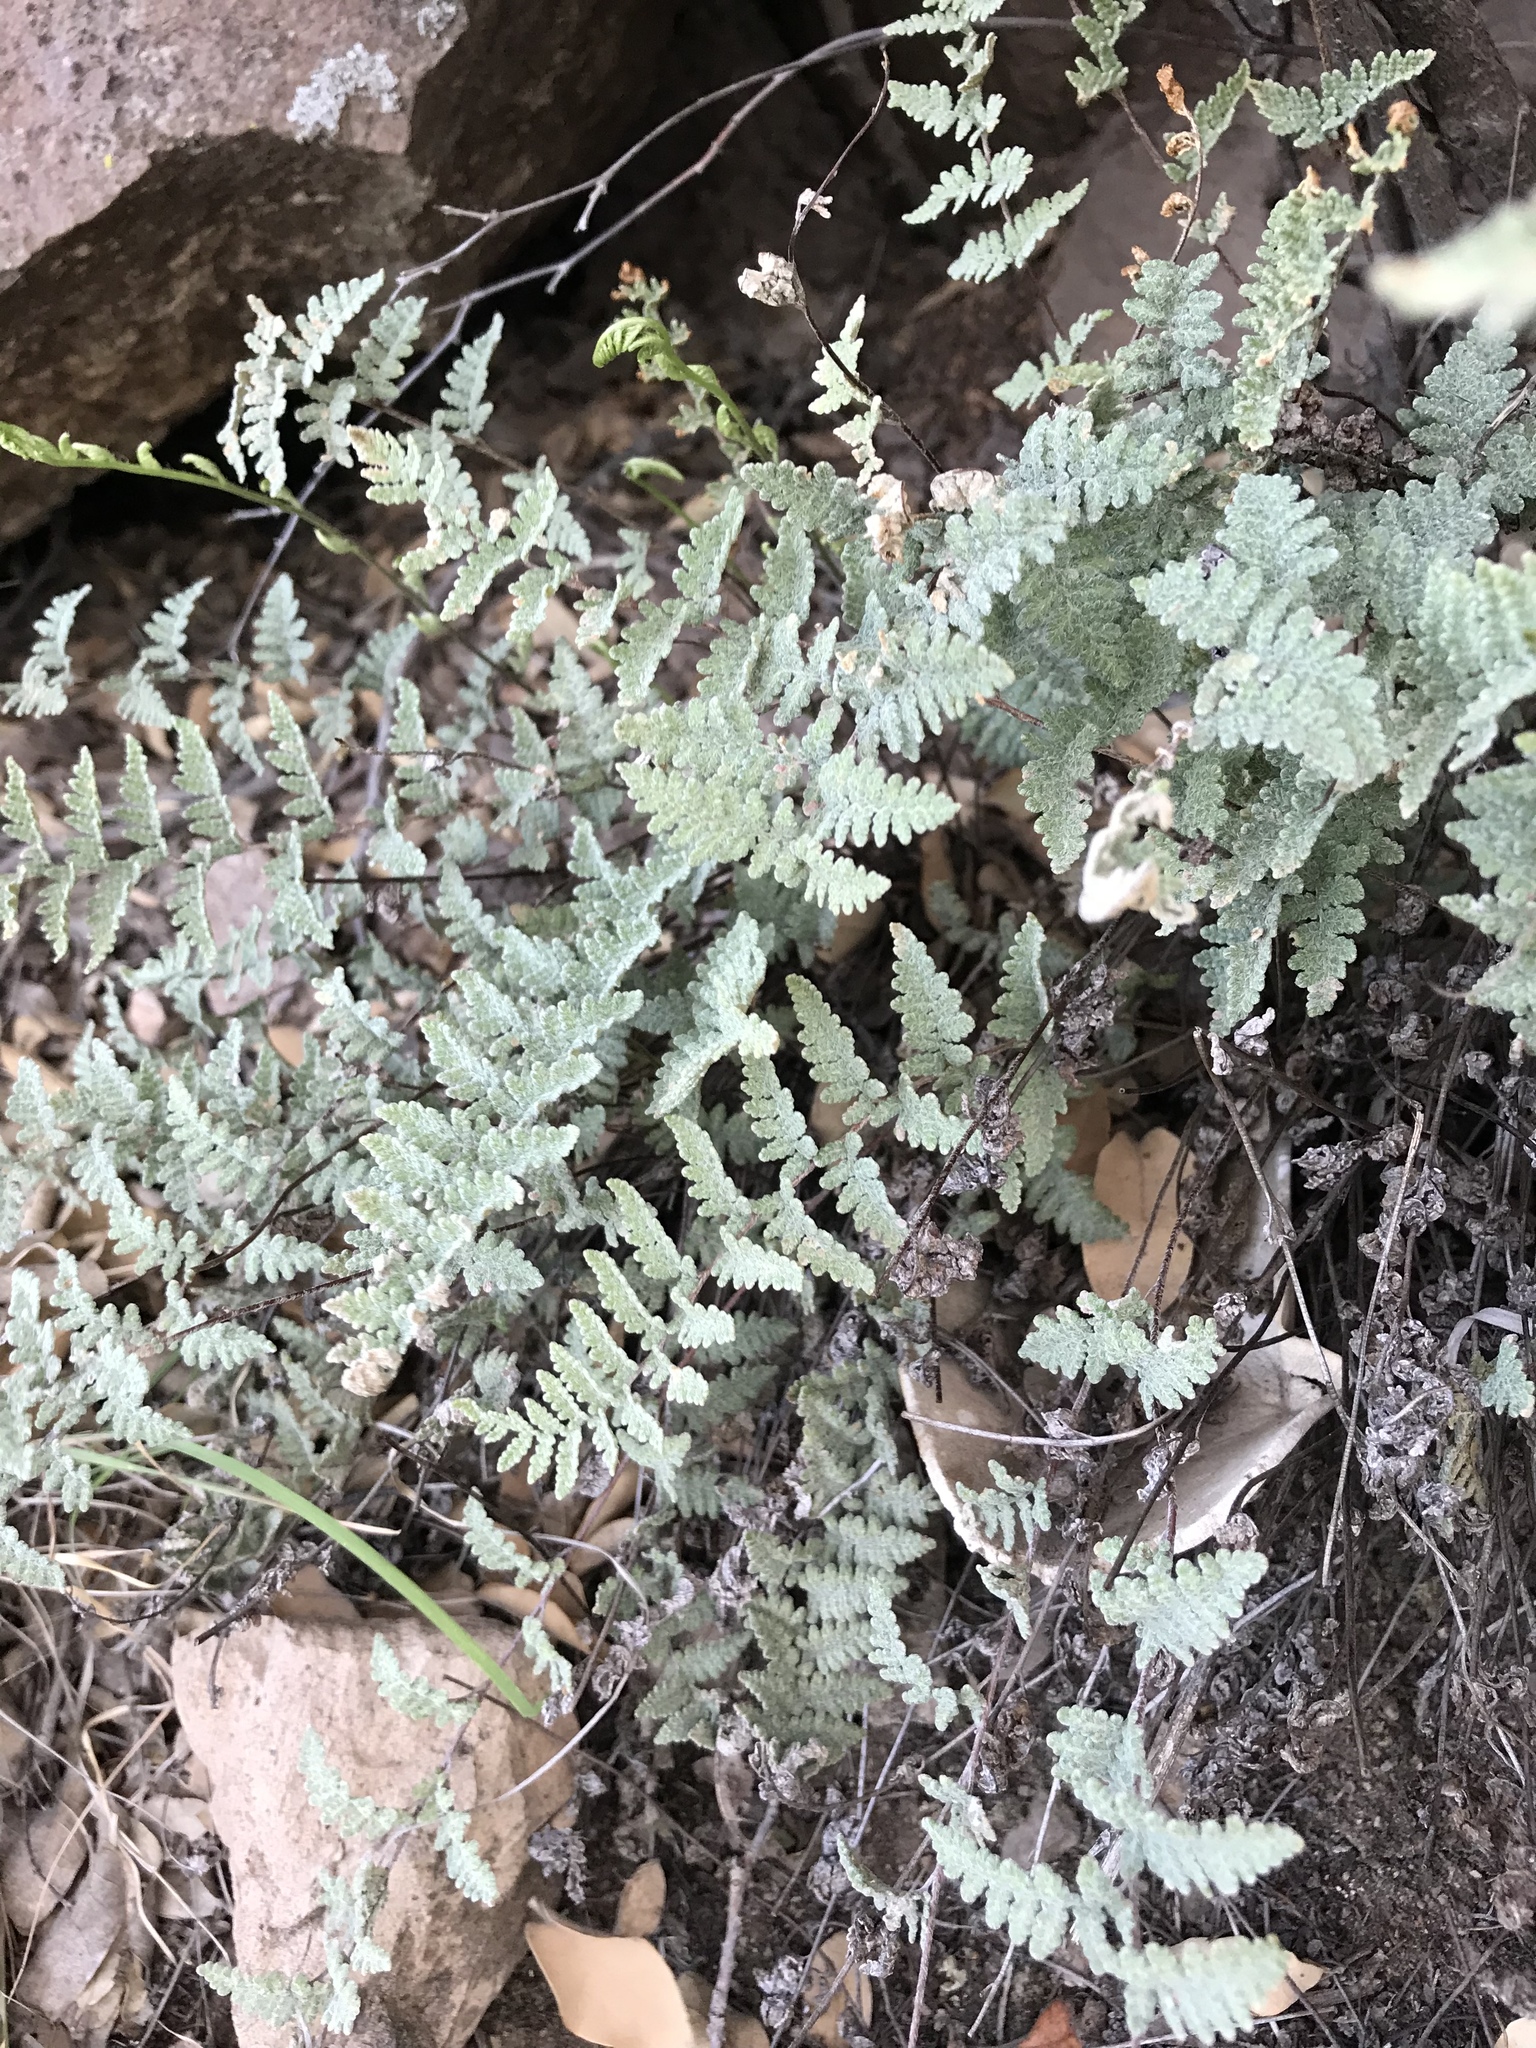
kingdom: Plantae
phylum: Tracheophyta
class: Polypodiopsida
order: Polypodiales
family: Pteridaceae
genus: Myriopteris
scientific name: Myriopteris rufa
